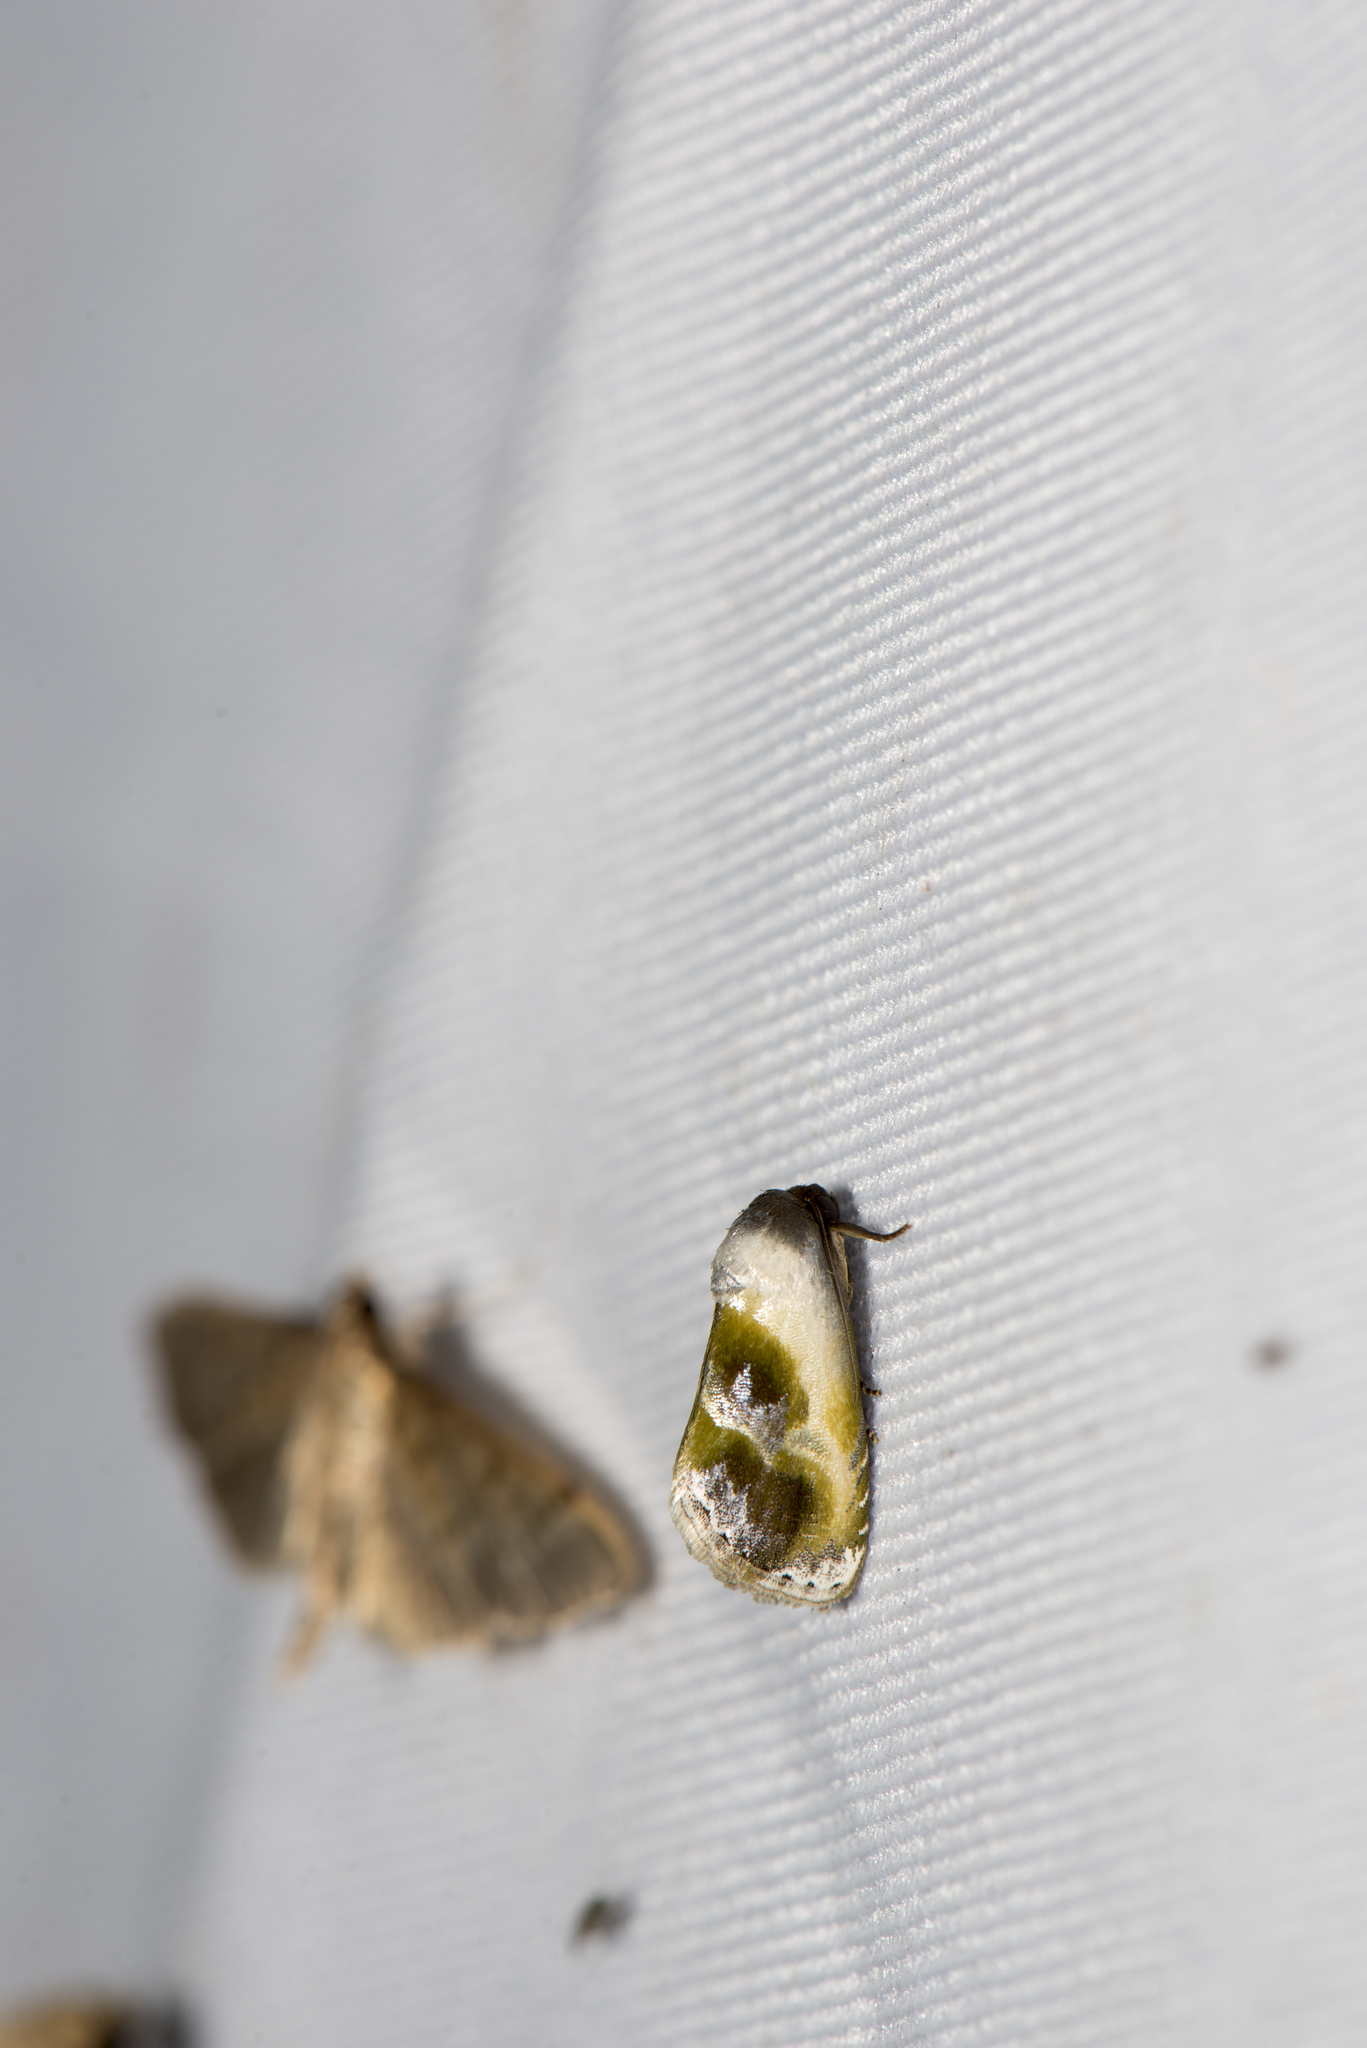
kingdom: Animalia
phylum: Arthropoda
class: Insecta
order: Lepidoptera
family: Noctuidae
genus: Acontia
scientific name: Acontia olivacea
